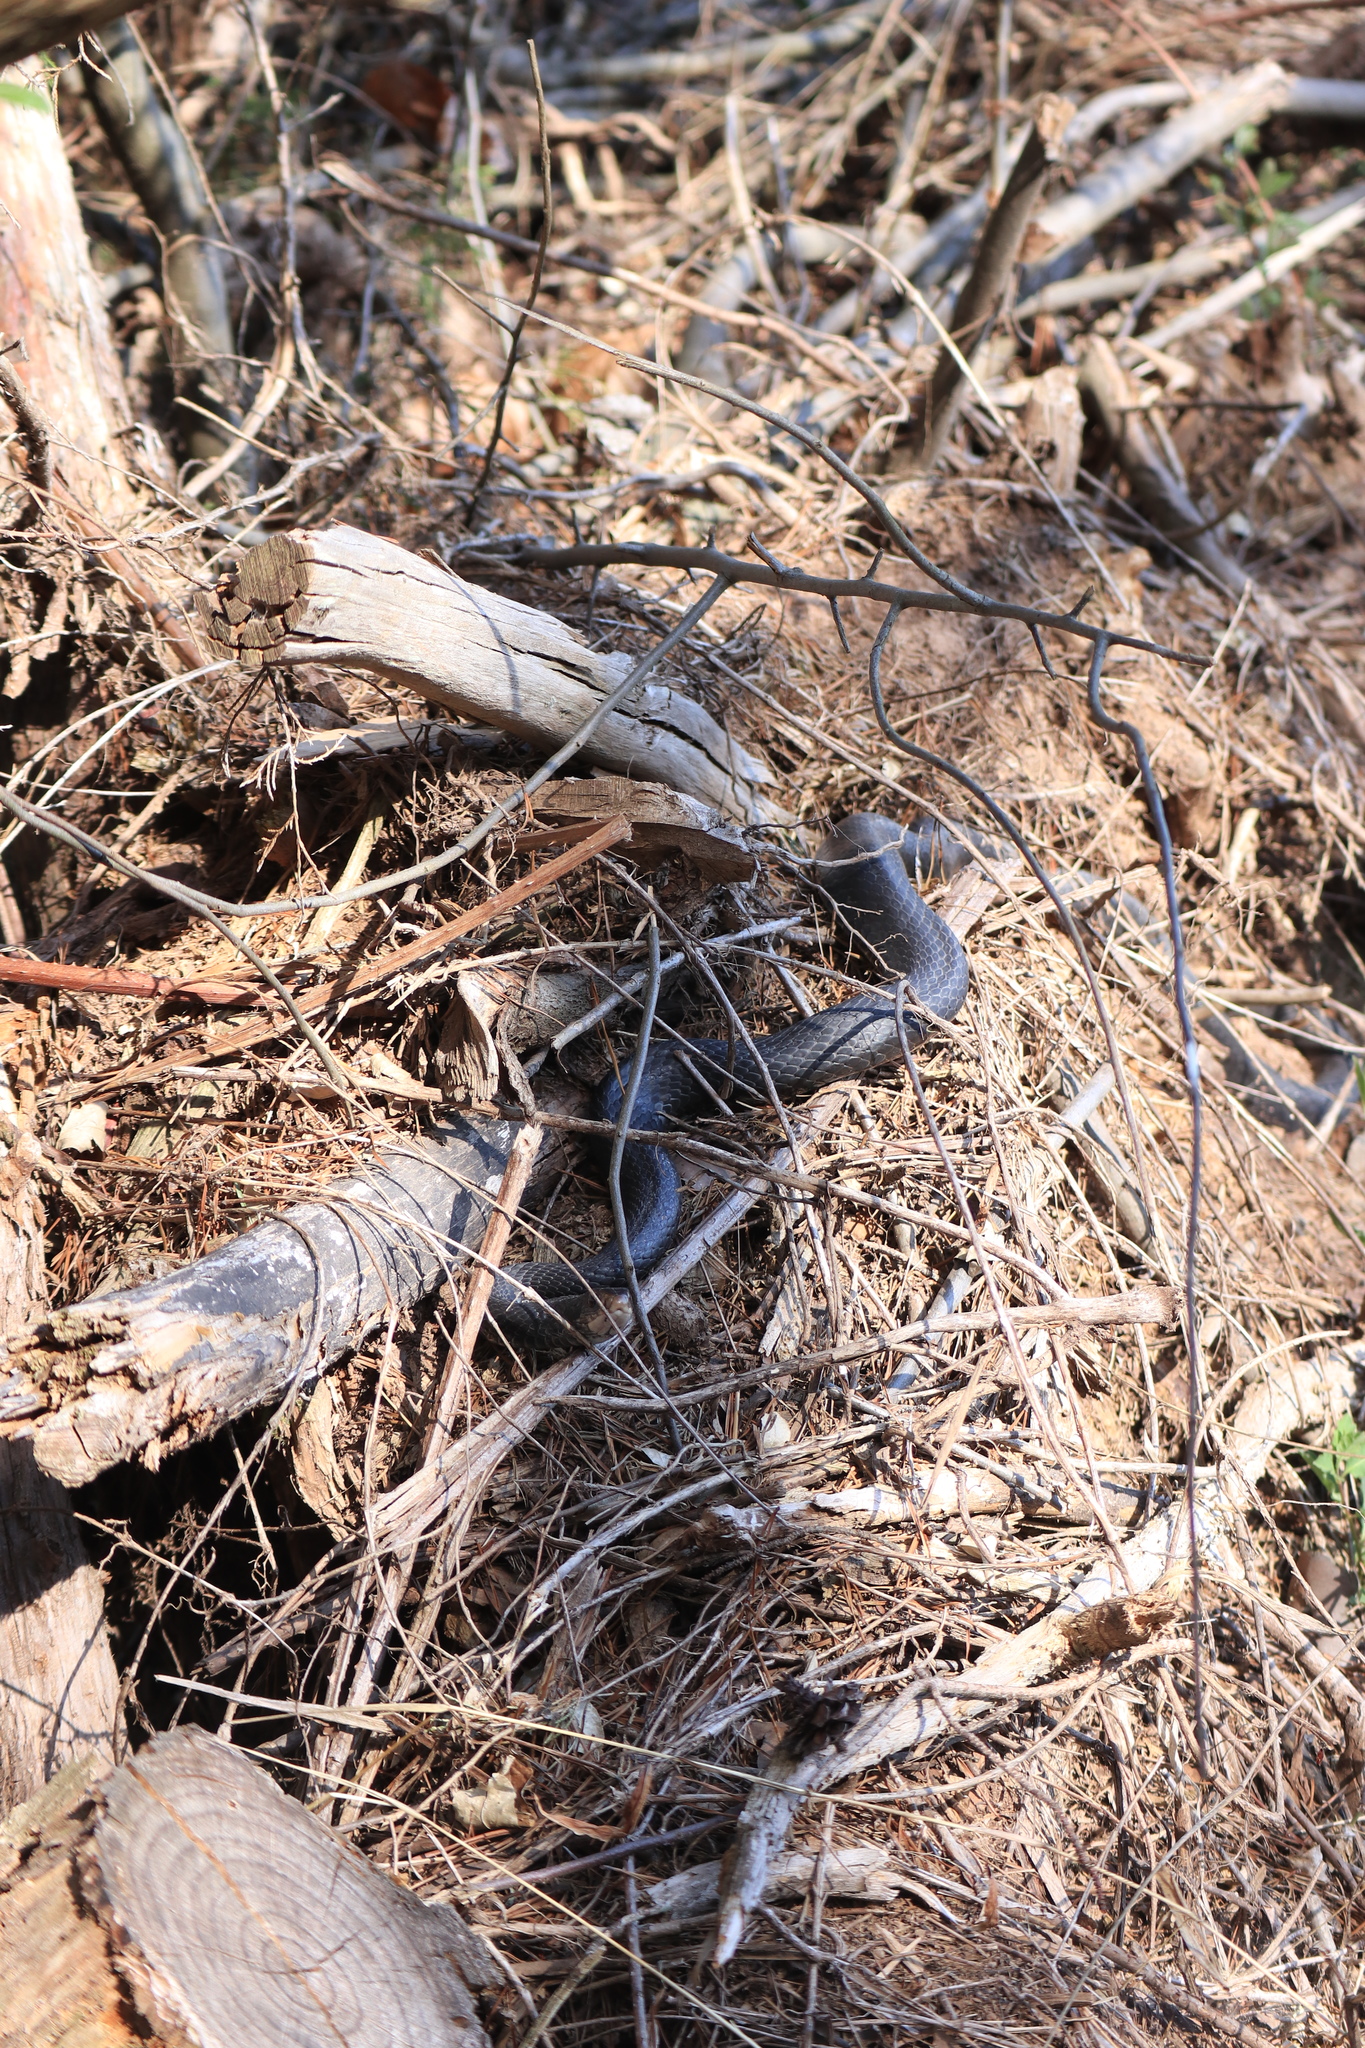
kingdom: Animalia
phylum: Chordata
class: Squamata
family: Colubridae
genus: Coluber
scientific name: Coluber constrictor
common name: Eastern racer
